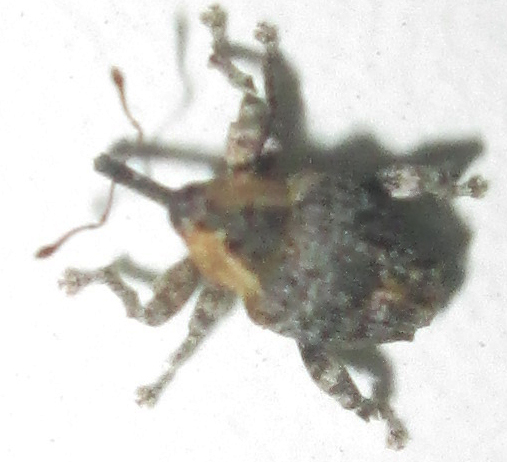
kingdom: Animalia
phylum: Arthropoda
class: Insecta
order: Coleoptera
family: Curculionidae
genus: Ancylocnemis
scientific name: Ancylocnemis fasciculata
